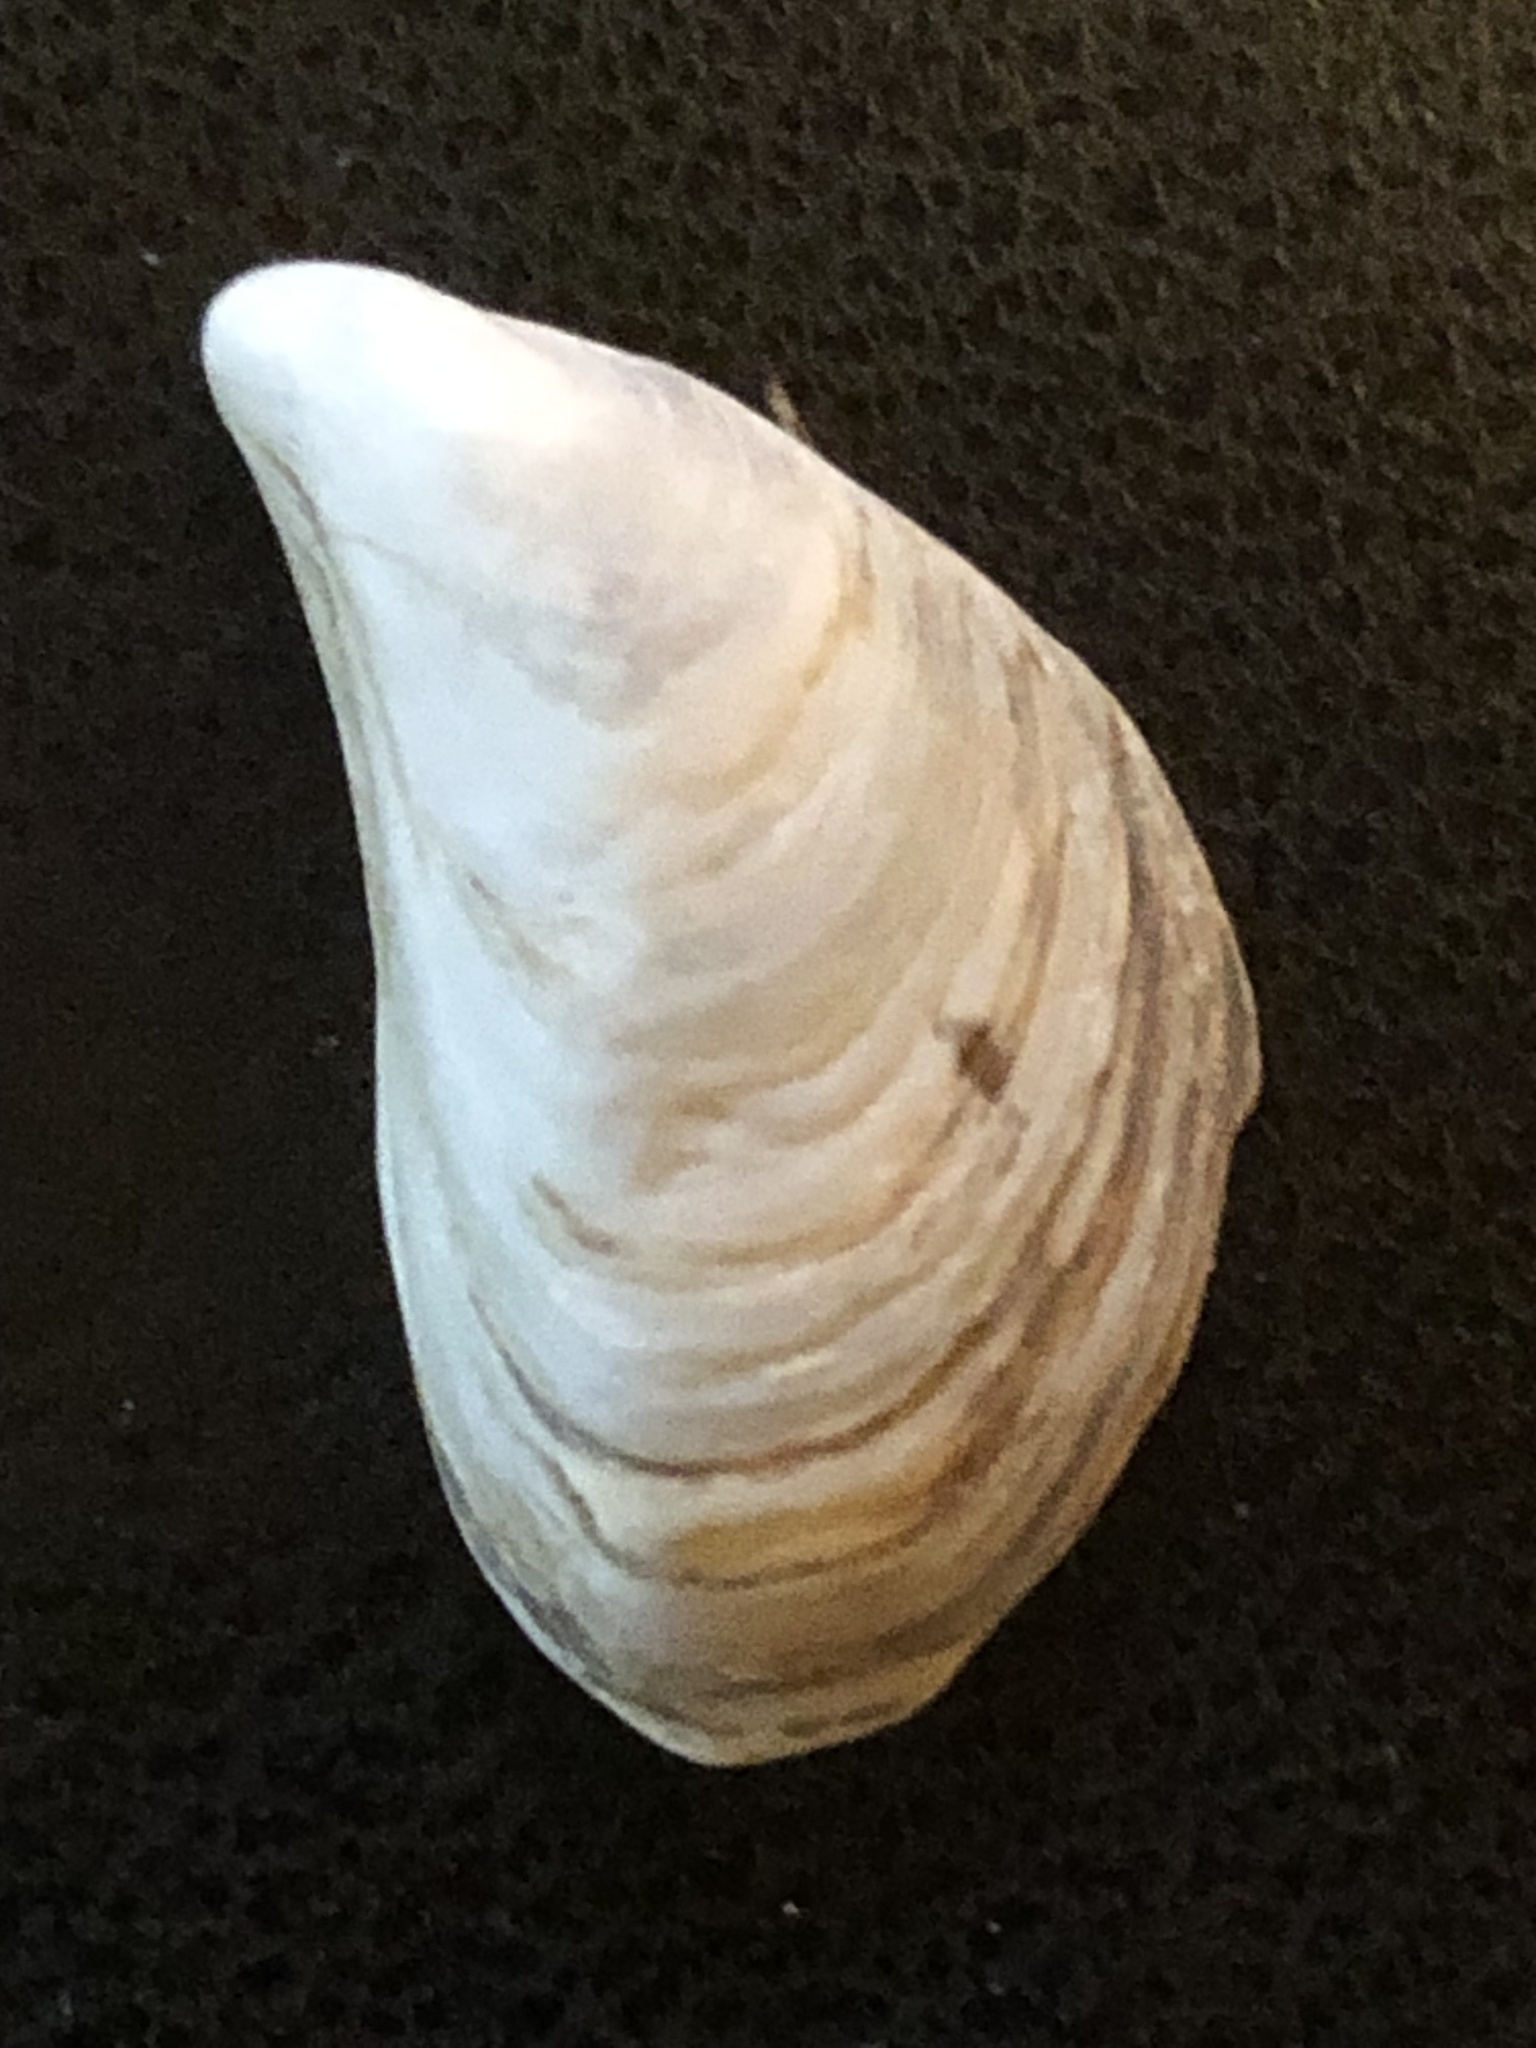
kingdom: Animalia
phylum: Mollusca
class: Bivalvia
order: Myida
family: Dreissenidae
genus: Dreissena
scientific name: Dreissena bugensis
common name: Quagga mussel
